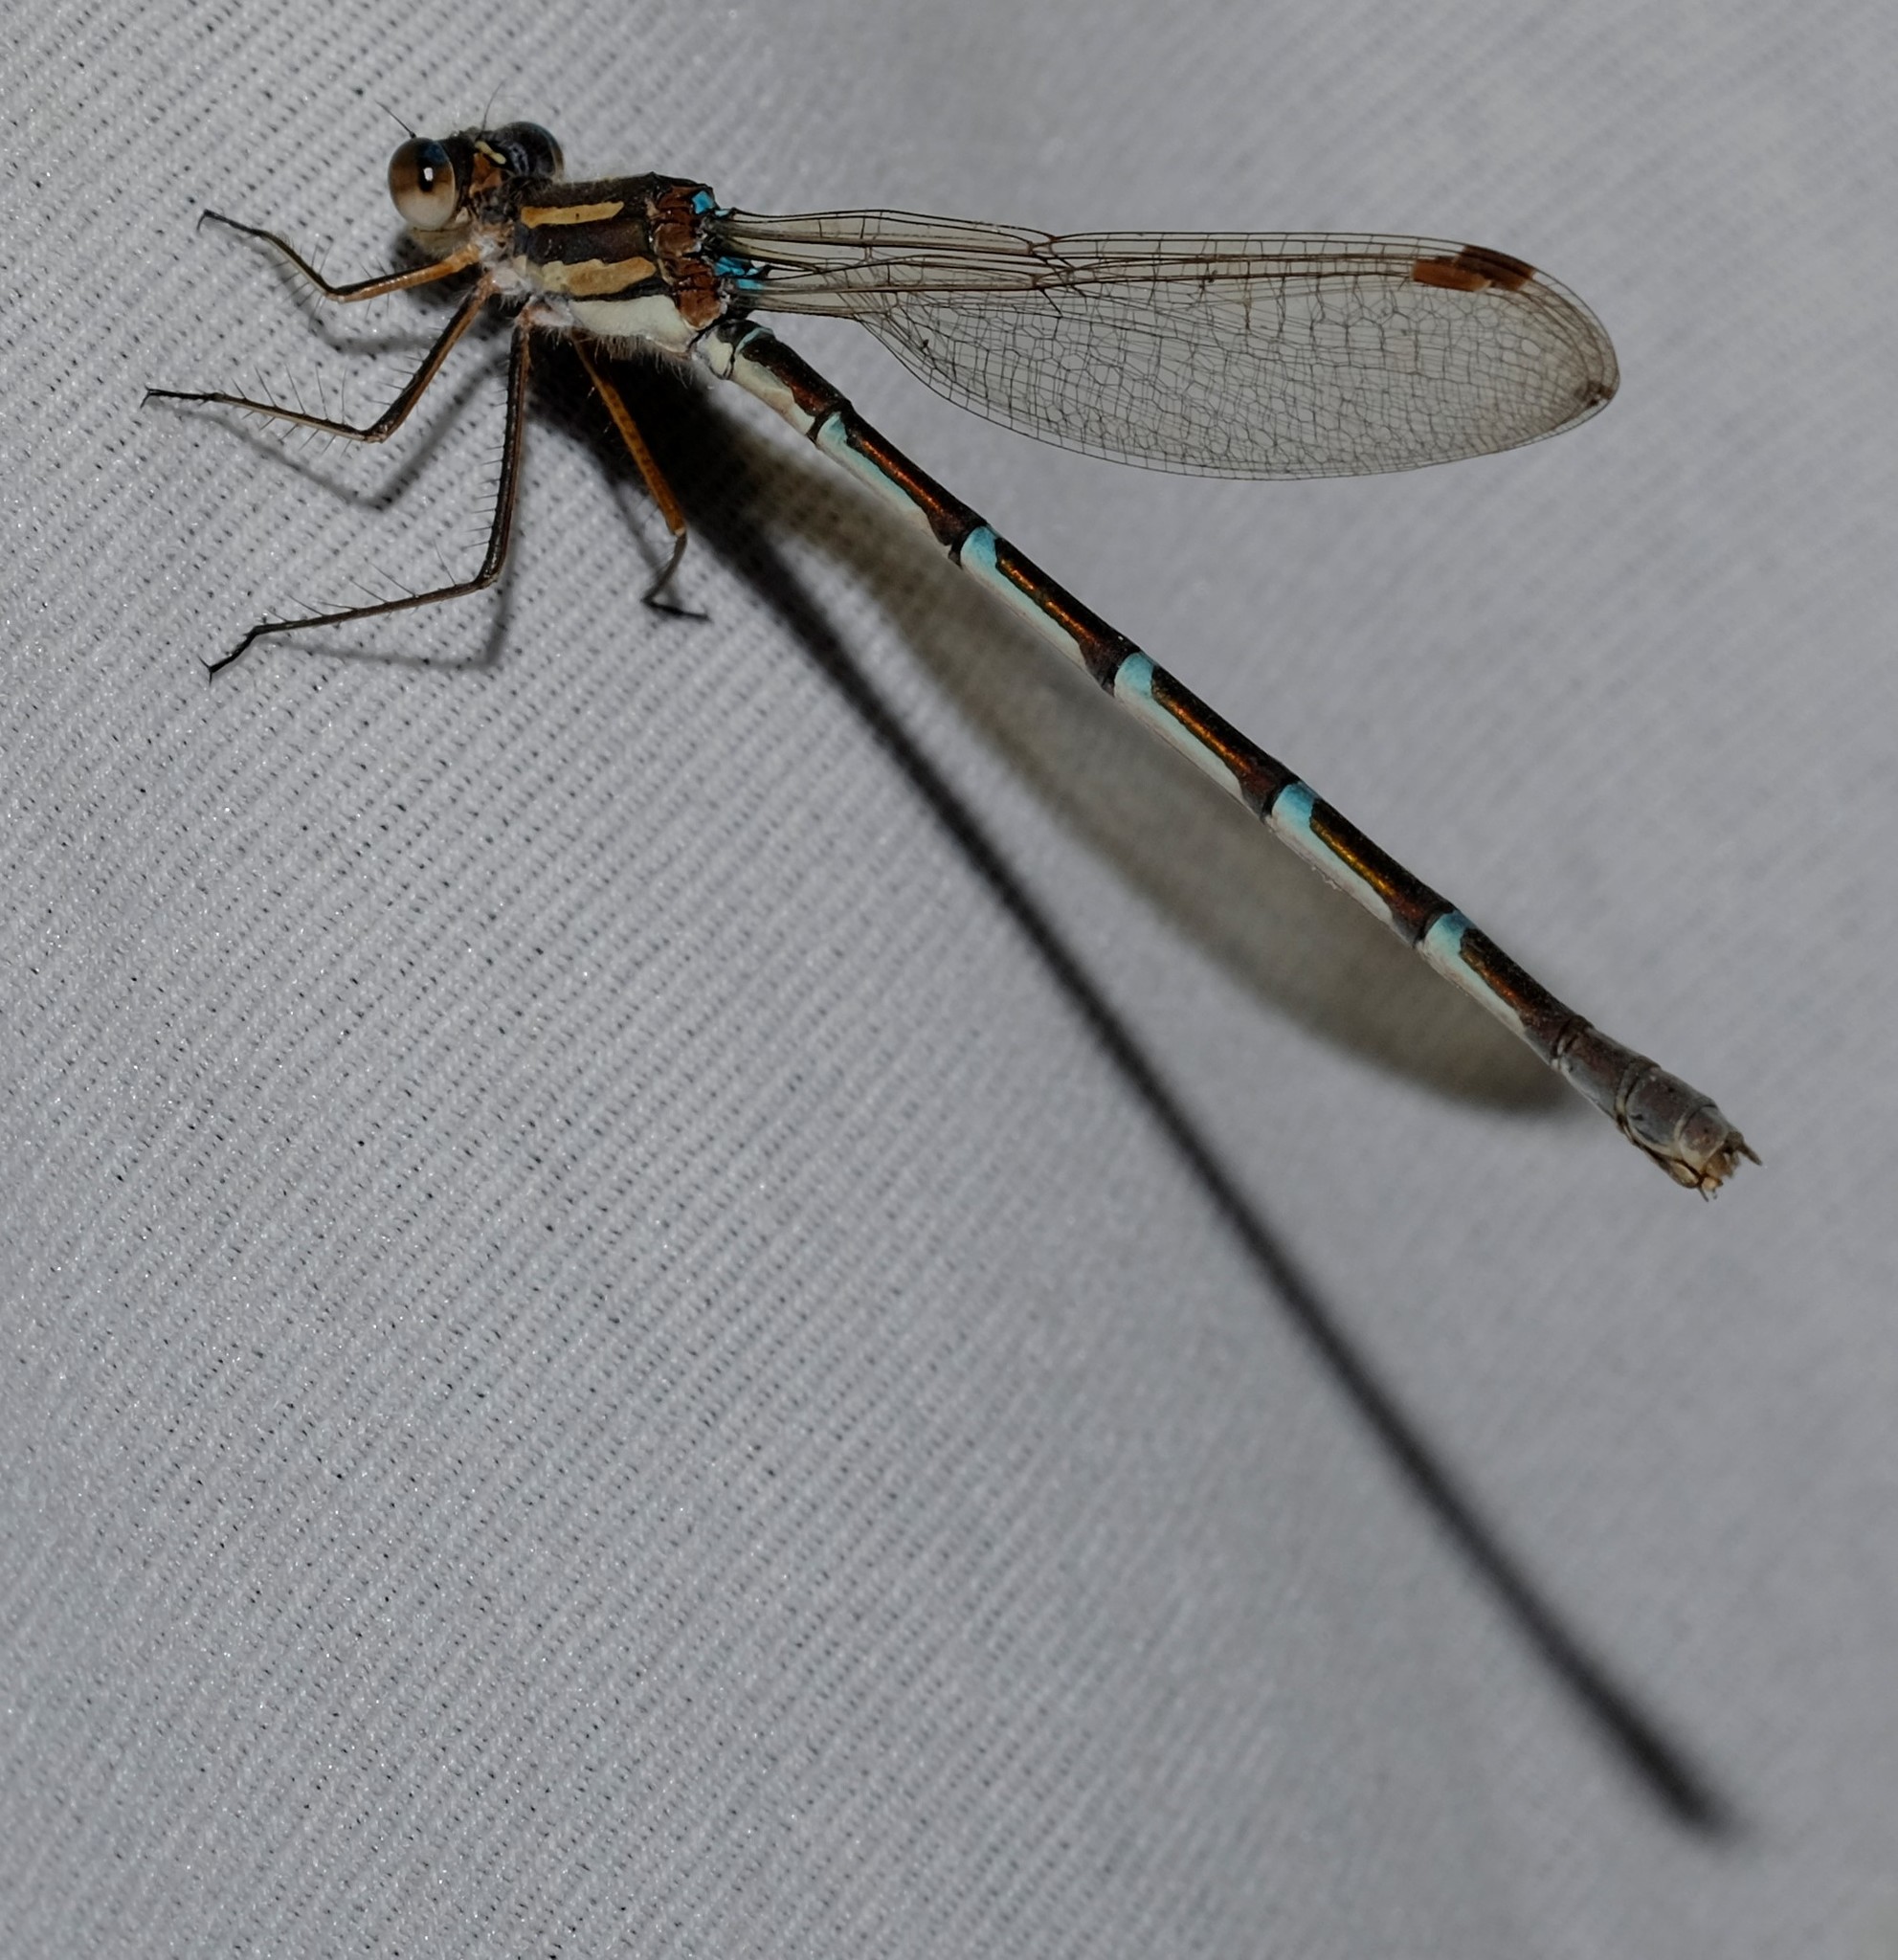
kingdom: Animalia
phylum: Arthropoda
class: Insecta
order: Odonata
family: Lestidae
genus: Austrolestes
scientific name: Austrolestes annulosus
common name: Blue ringtail
